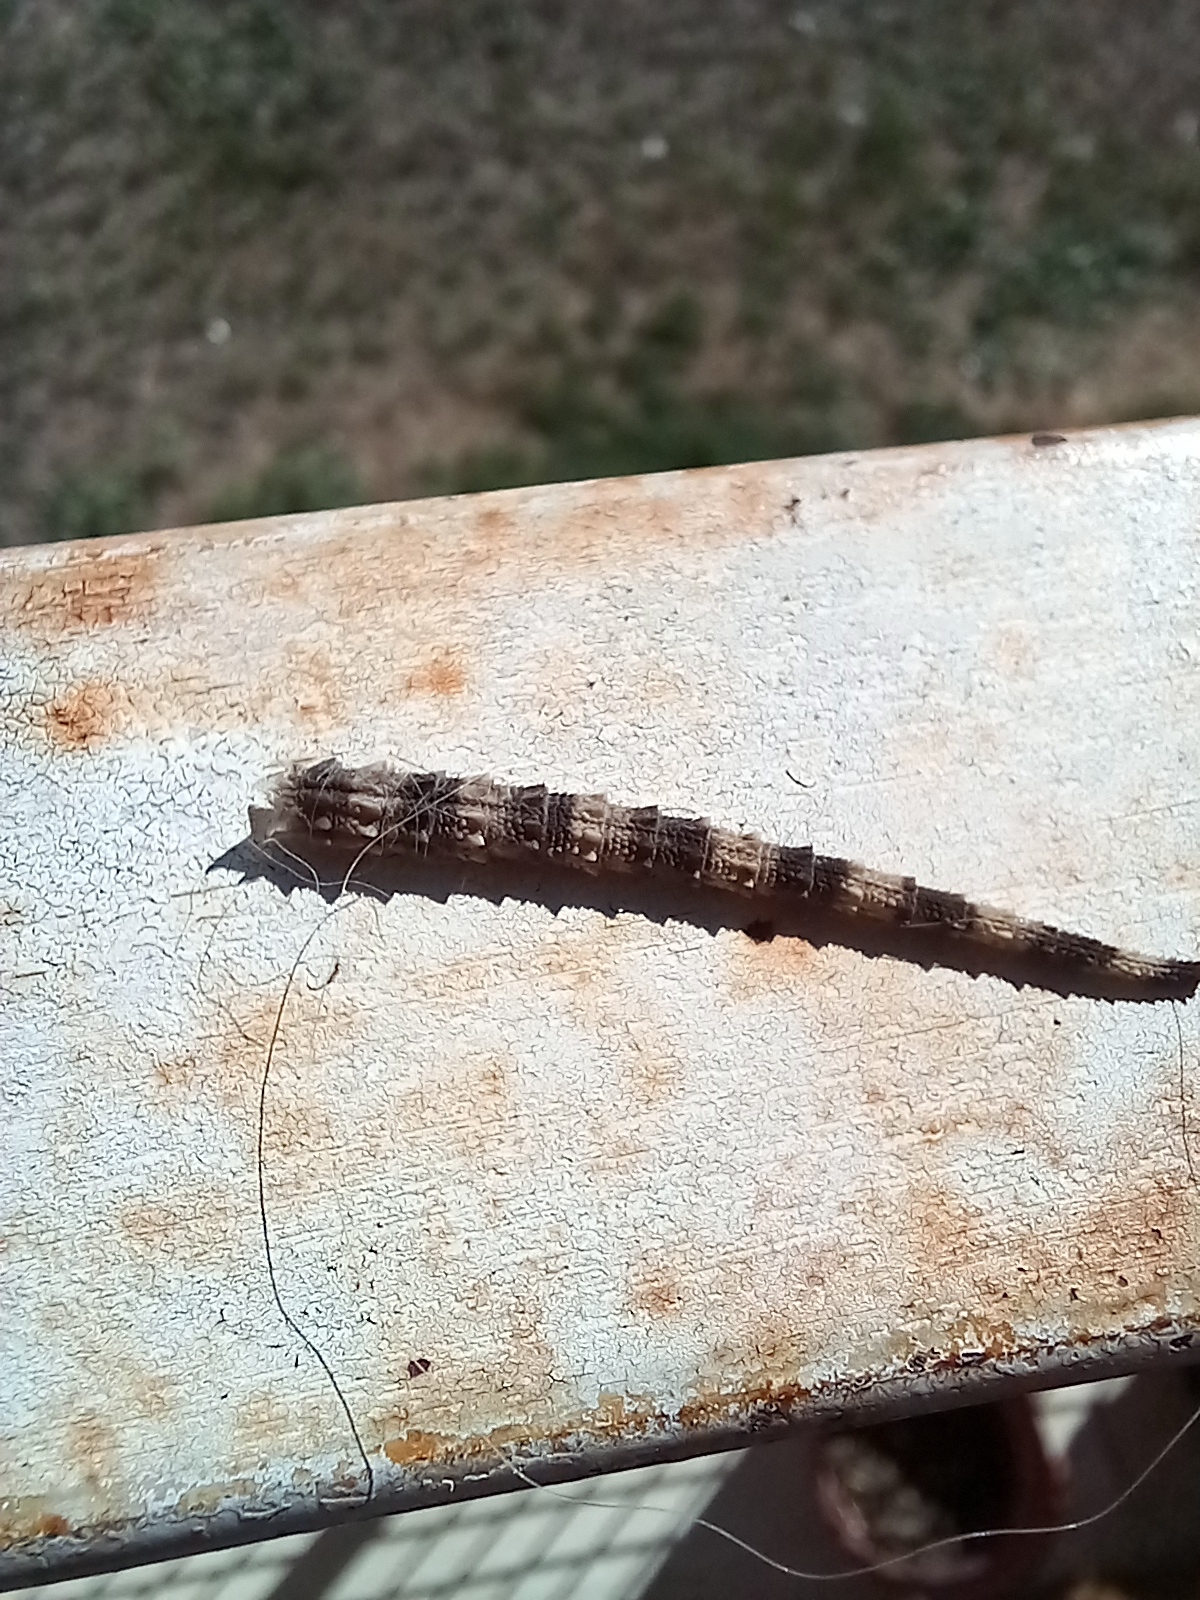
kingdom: Animalia
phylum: Chordata
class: Squamata
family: Phyllodactylidae
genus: Tarentola
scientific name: Tarentola mauritanica
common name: Moorish gecko
